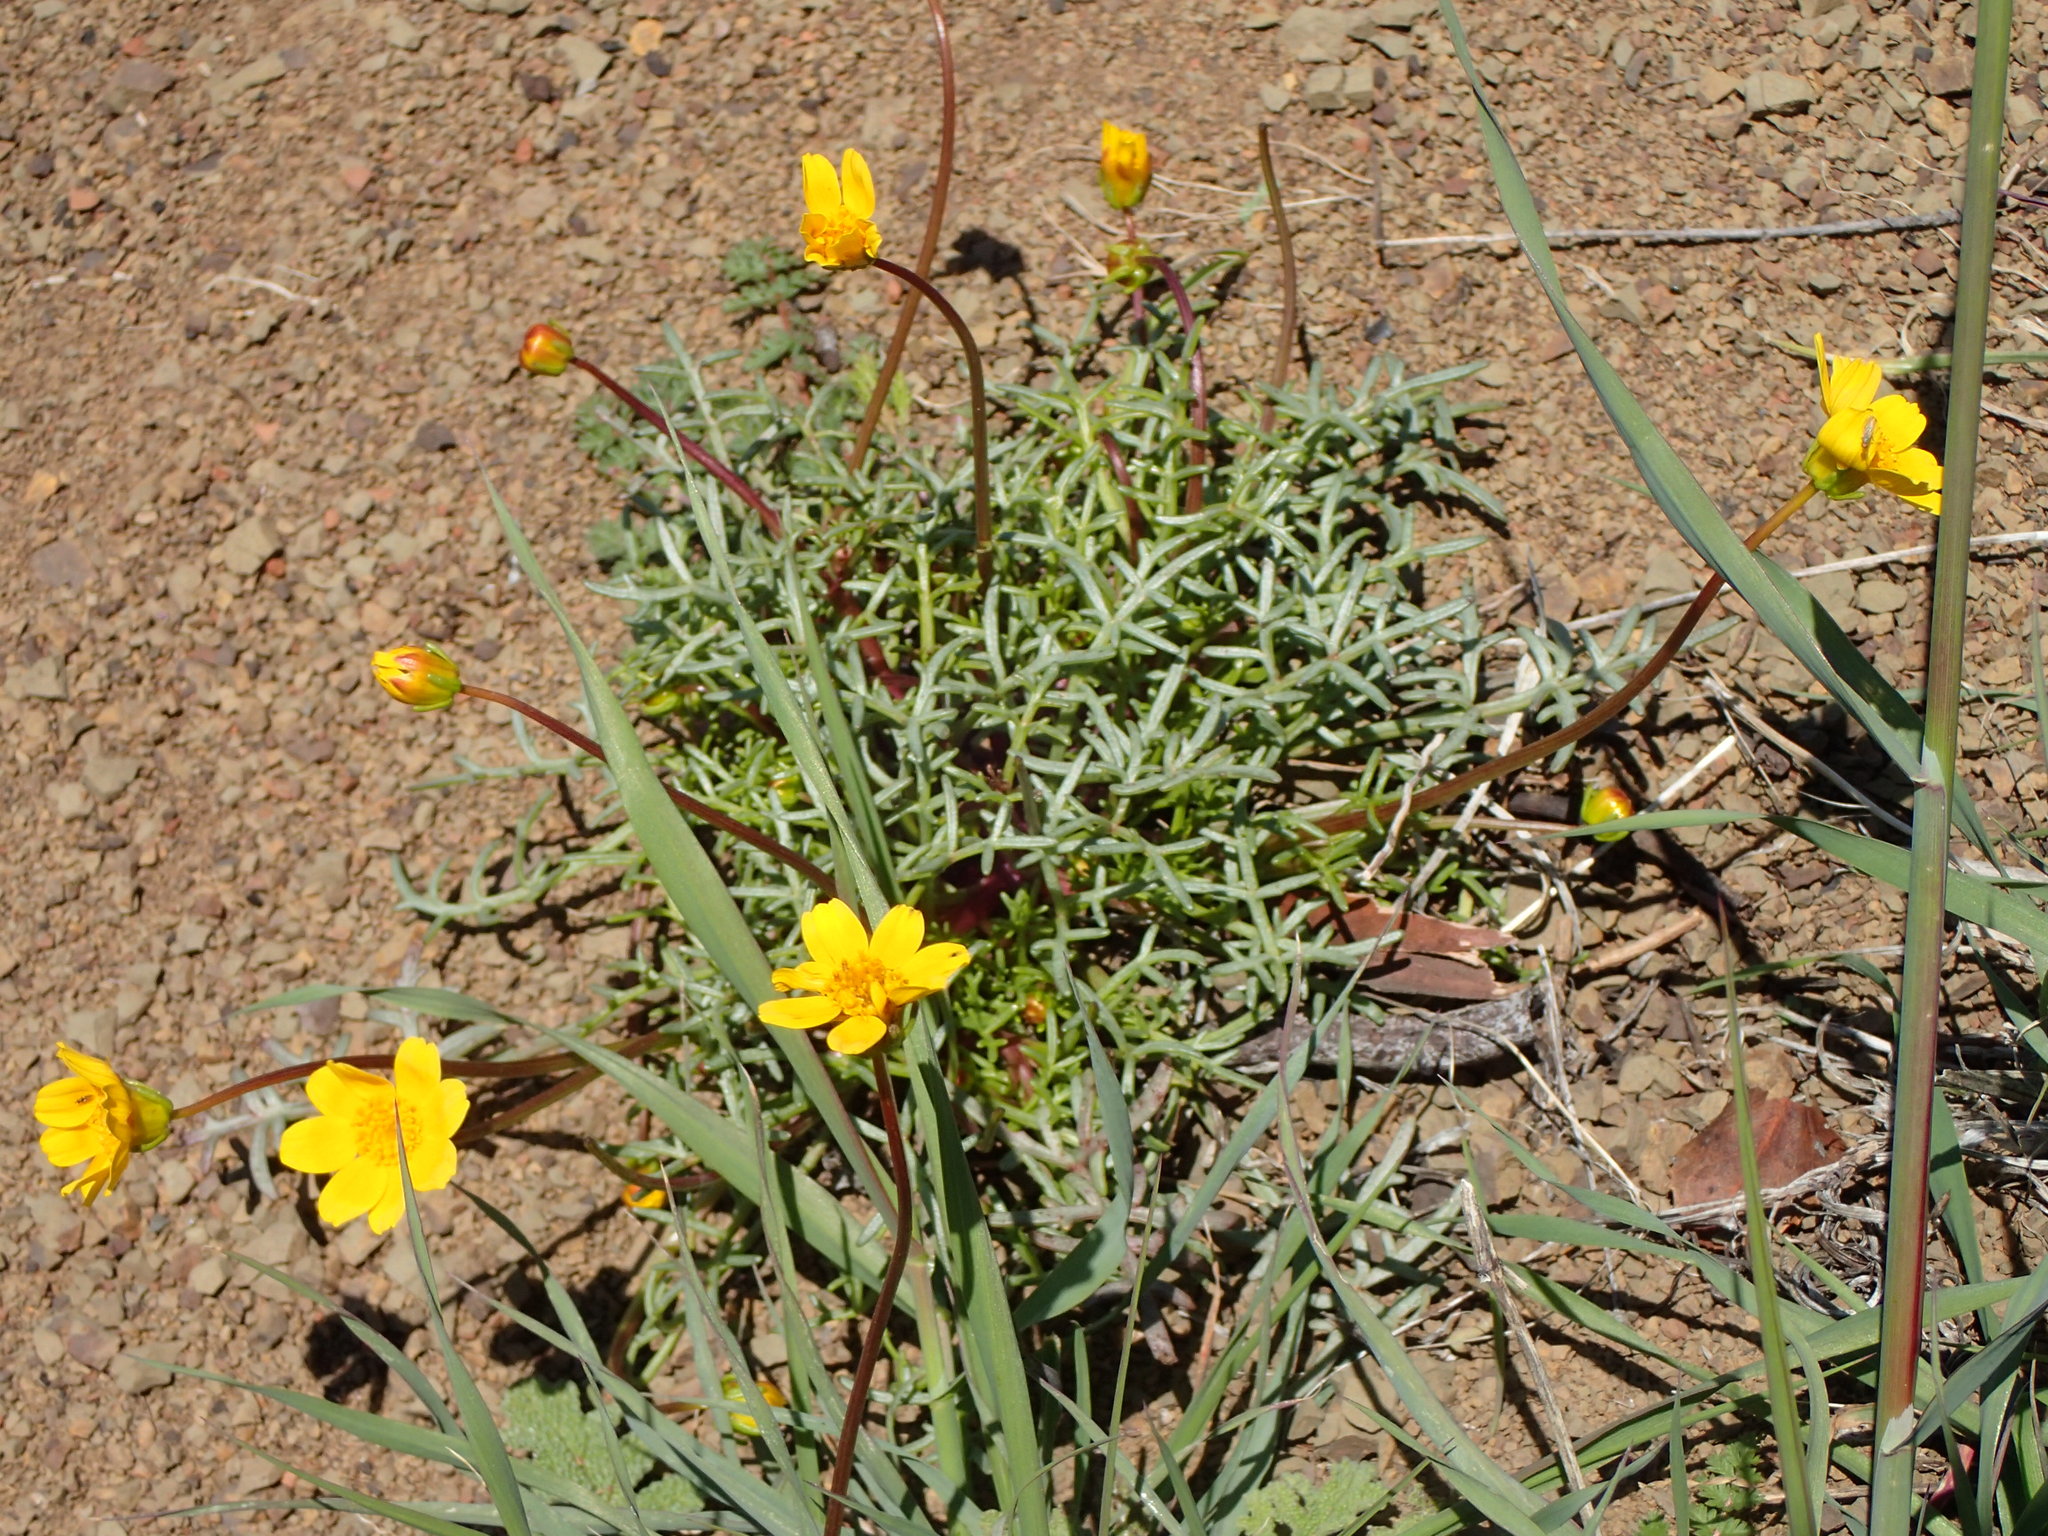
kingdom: Plantae
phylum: Tracheophyta
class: Magnoliopsida
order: Asterales
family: Asteraceae
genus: Coreopsis
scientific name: Coreopsis bigelovii
